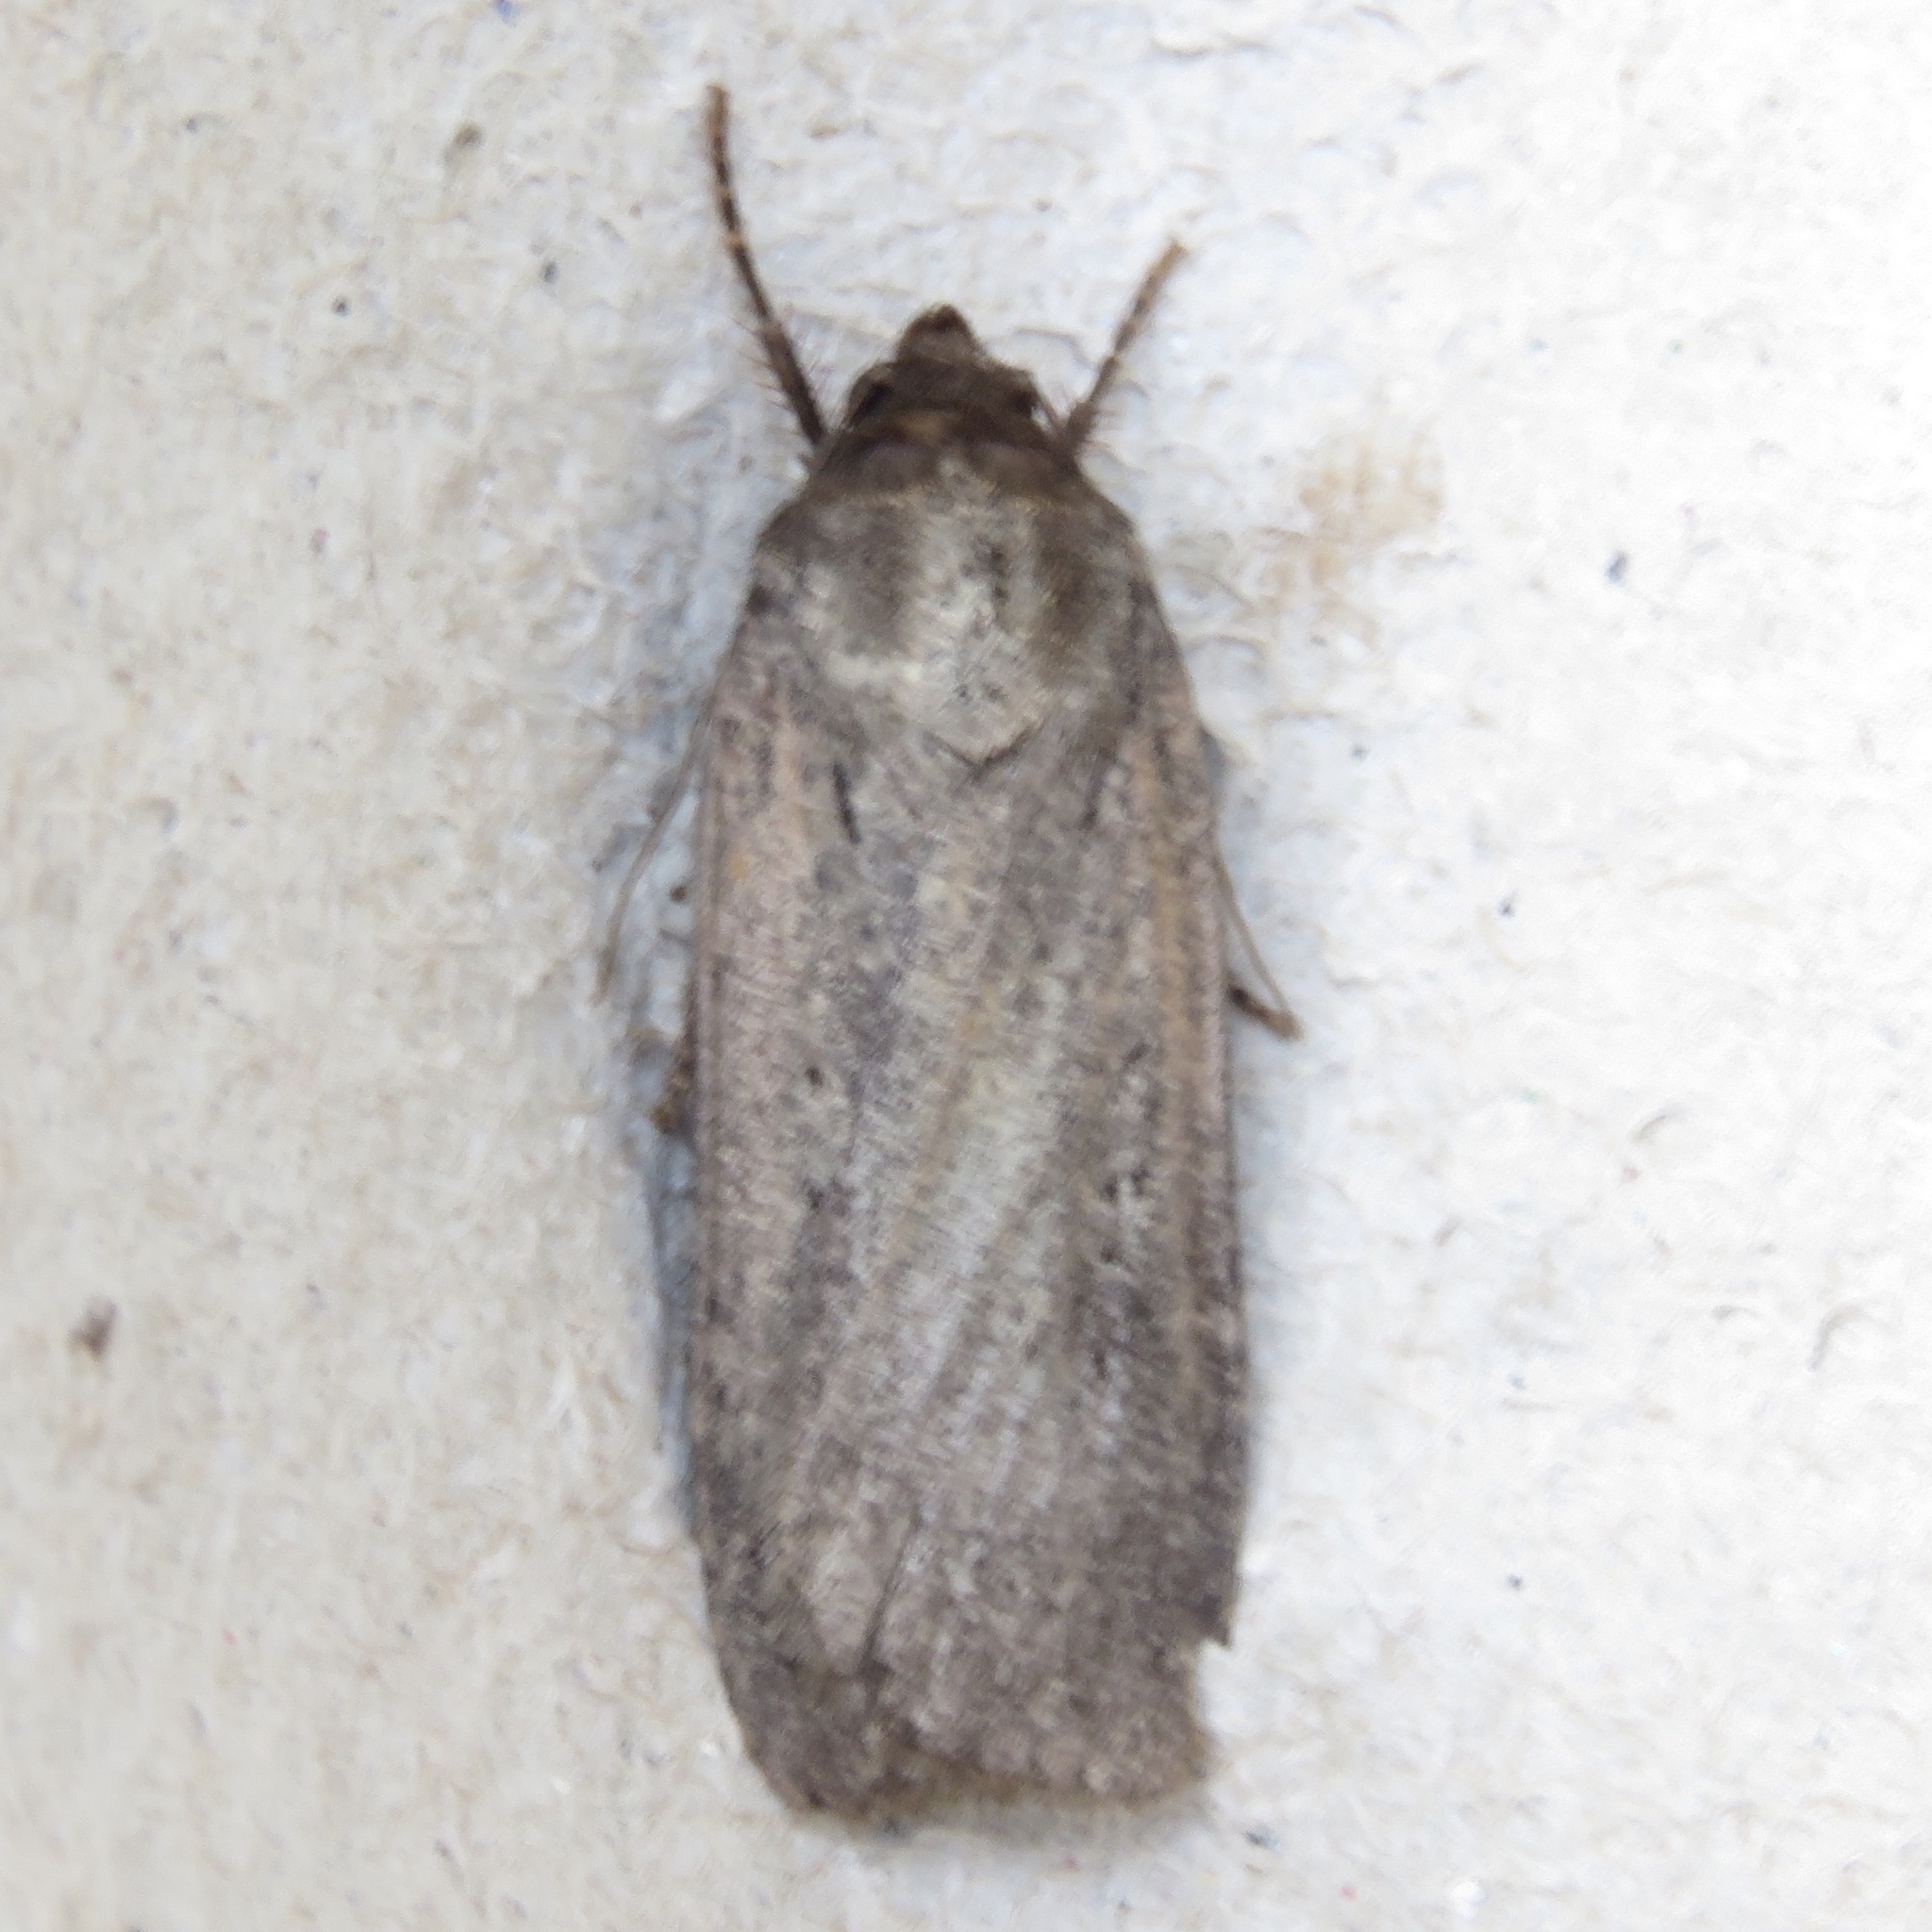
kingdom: Animalia
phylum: Arthropoda
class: Insecta
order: Lepidoptera
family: Noctuidae
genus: Spaelotis
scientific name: Spaelotis clandestina
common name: Clandestine dart
